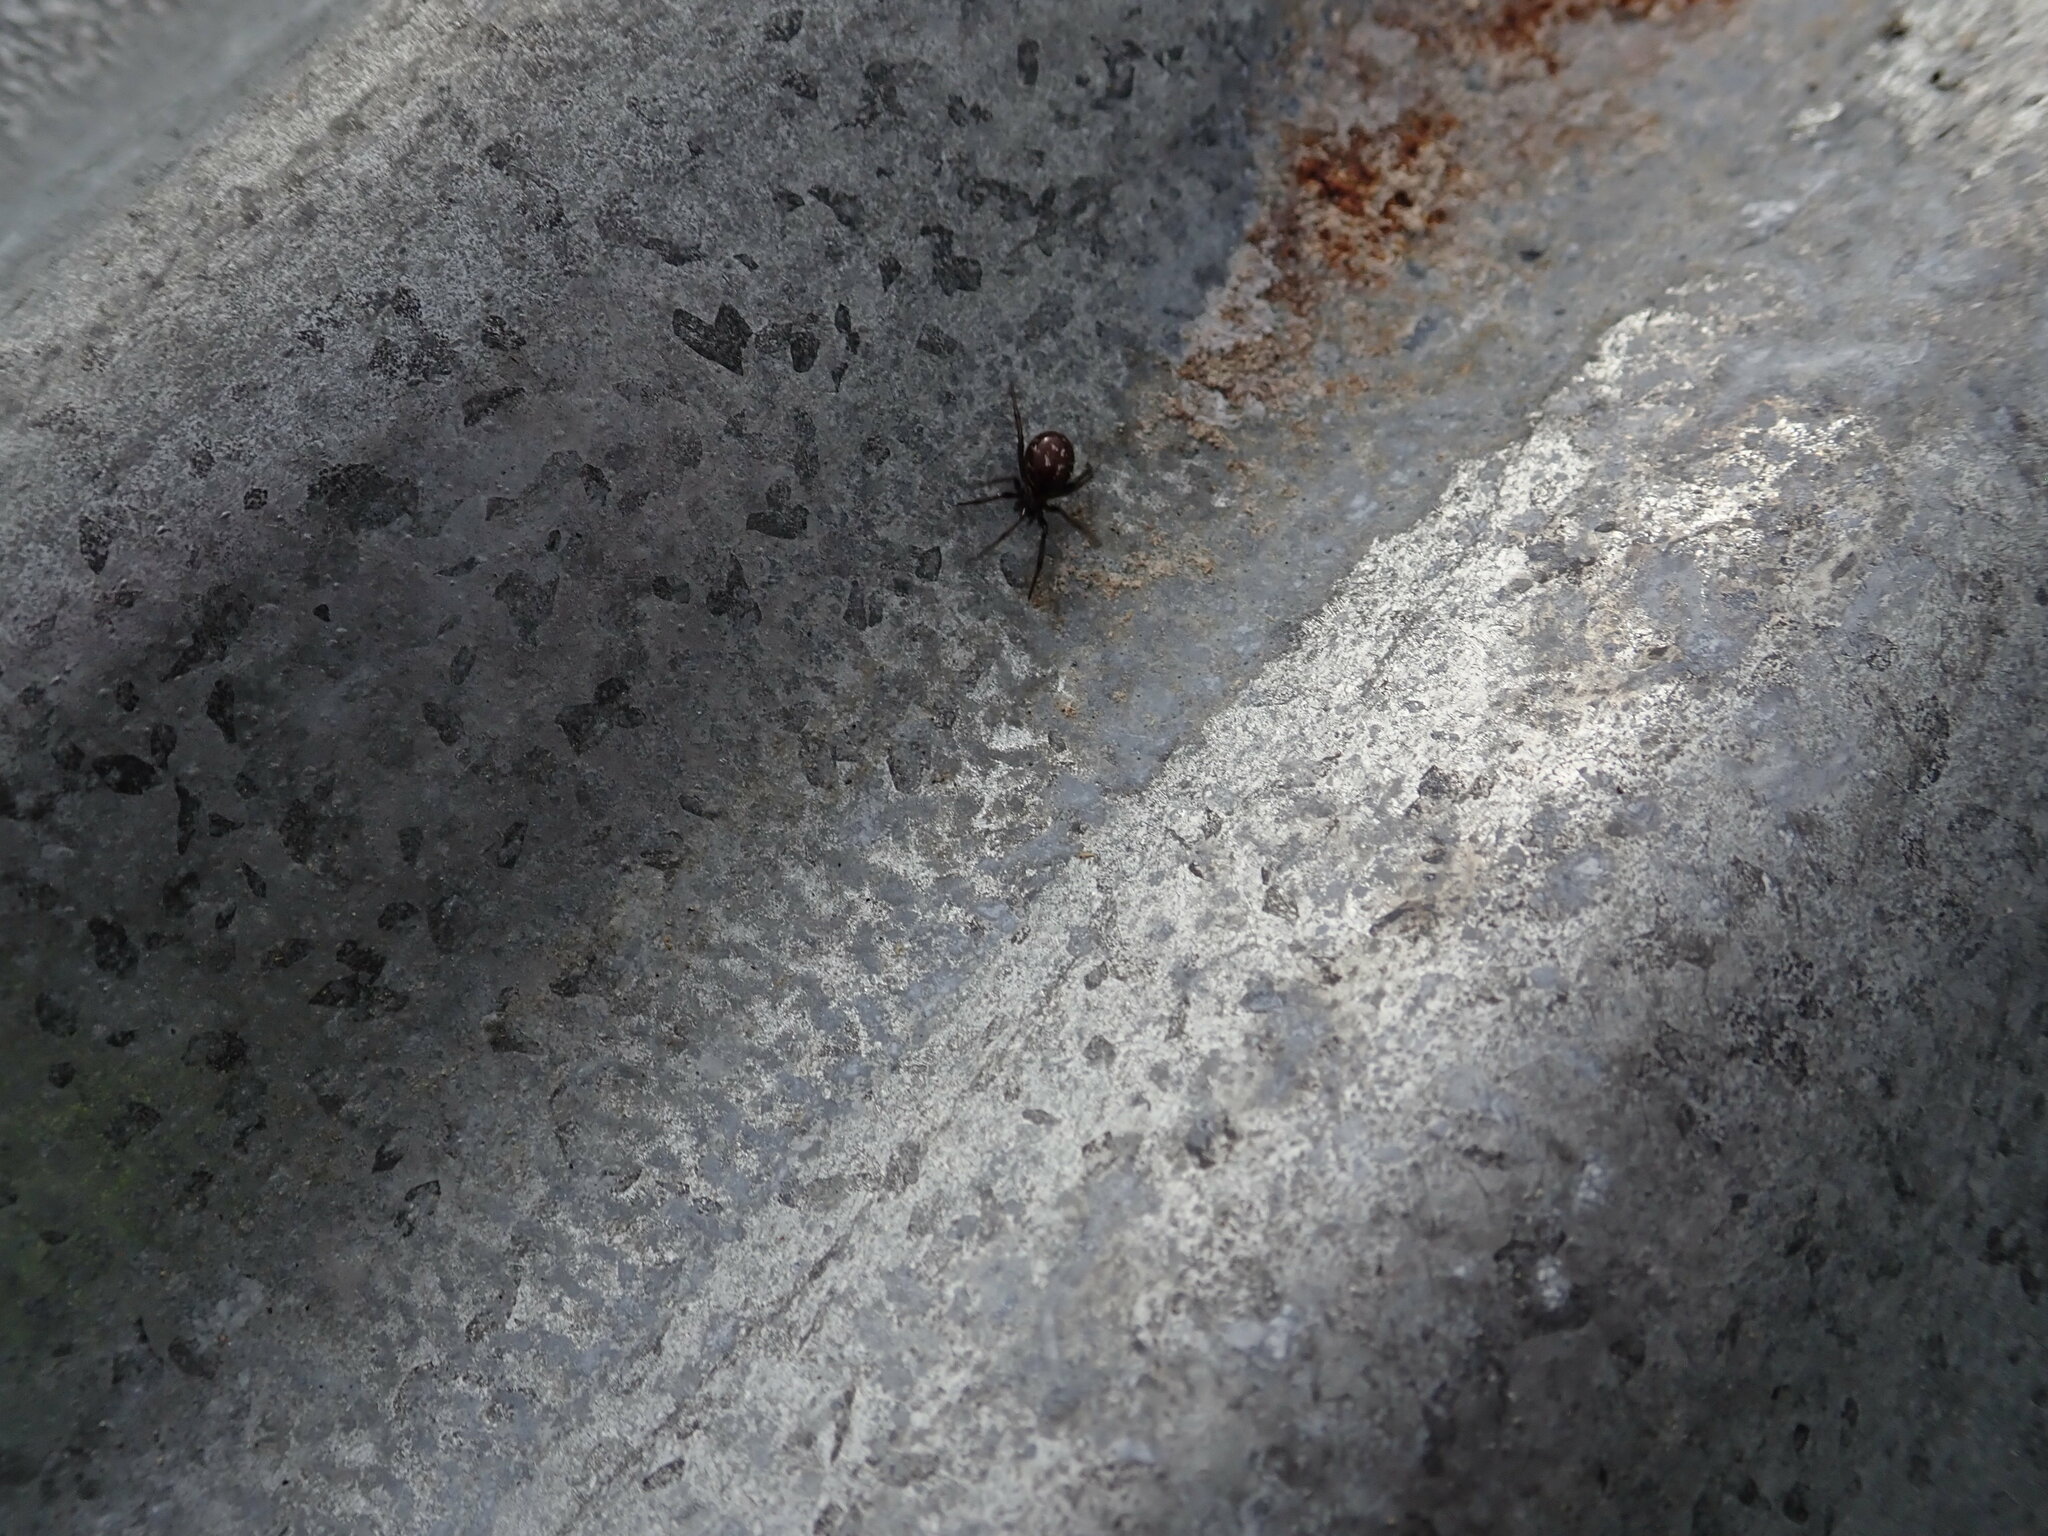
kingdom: Animalia
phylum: Arthropoda
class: Arachnida
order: Araneae
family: Theridiidae
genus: Steatoda
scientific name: Steatoda capensis
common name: Cobweb weaver
